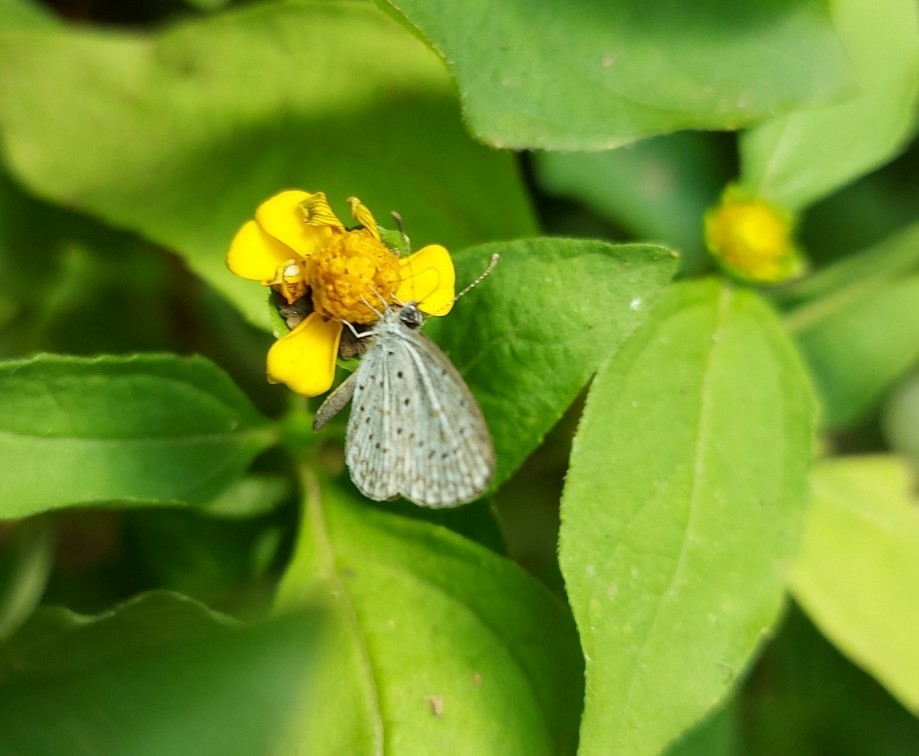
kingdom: Animalia
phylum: Arthropoda
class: Insecta
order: Lepidoptera
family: Lycaenidae
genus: Lycaena
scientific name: Lycaena cyna
